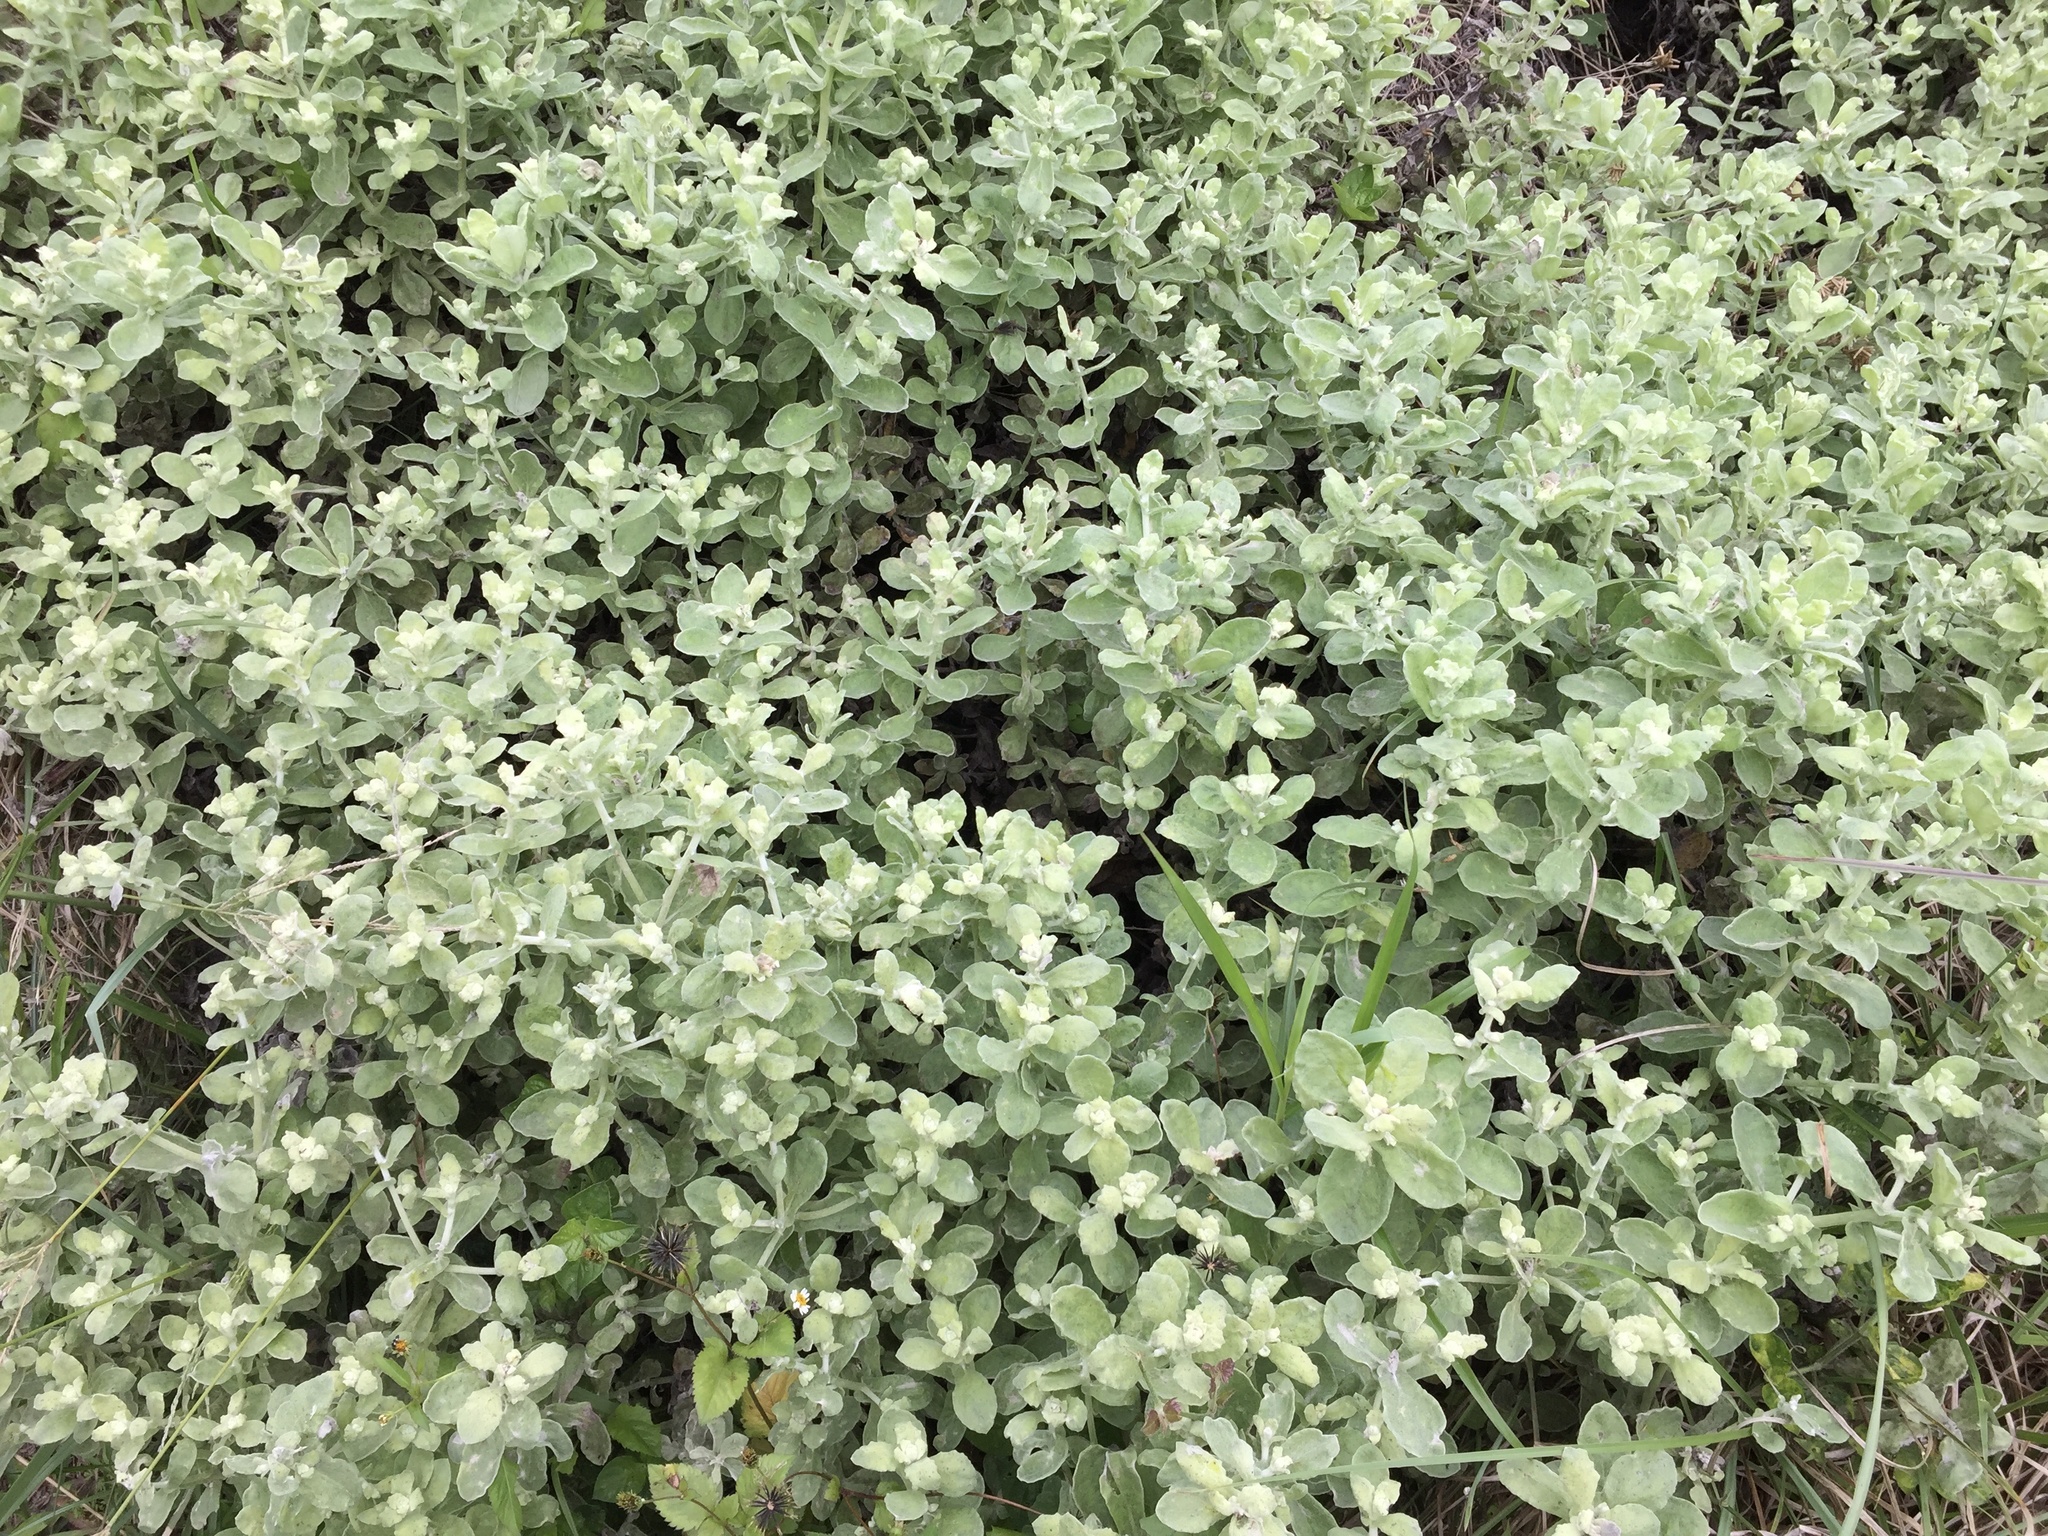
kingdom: Plantae
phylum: Tracheophyta
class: Magnoliopsida
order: Asterales
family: Asteraceae
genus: Helichrysum
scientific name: Helichrysum panduratum
